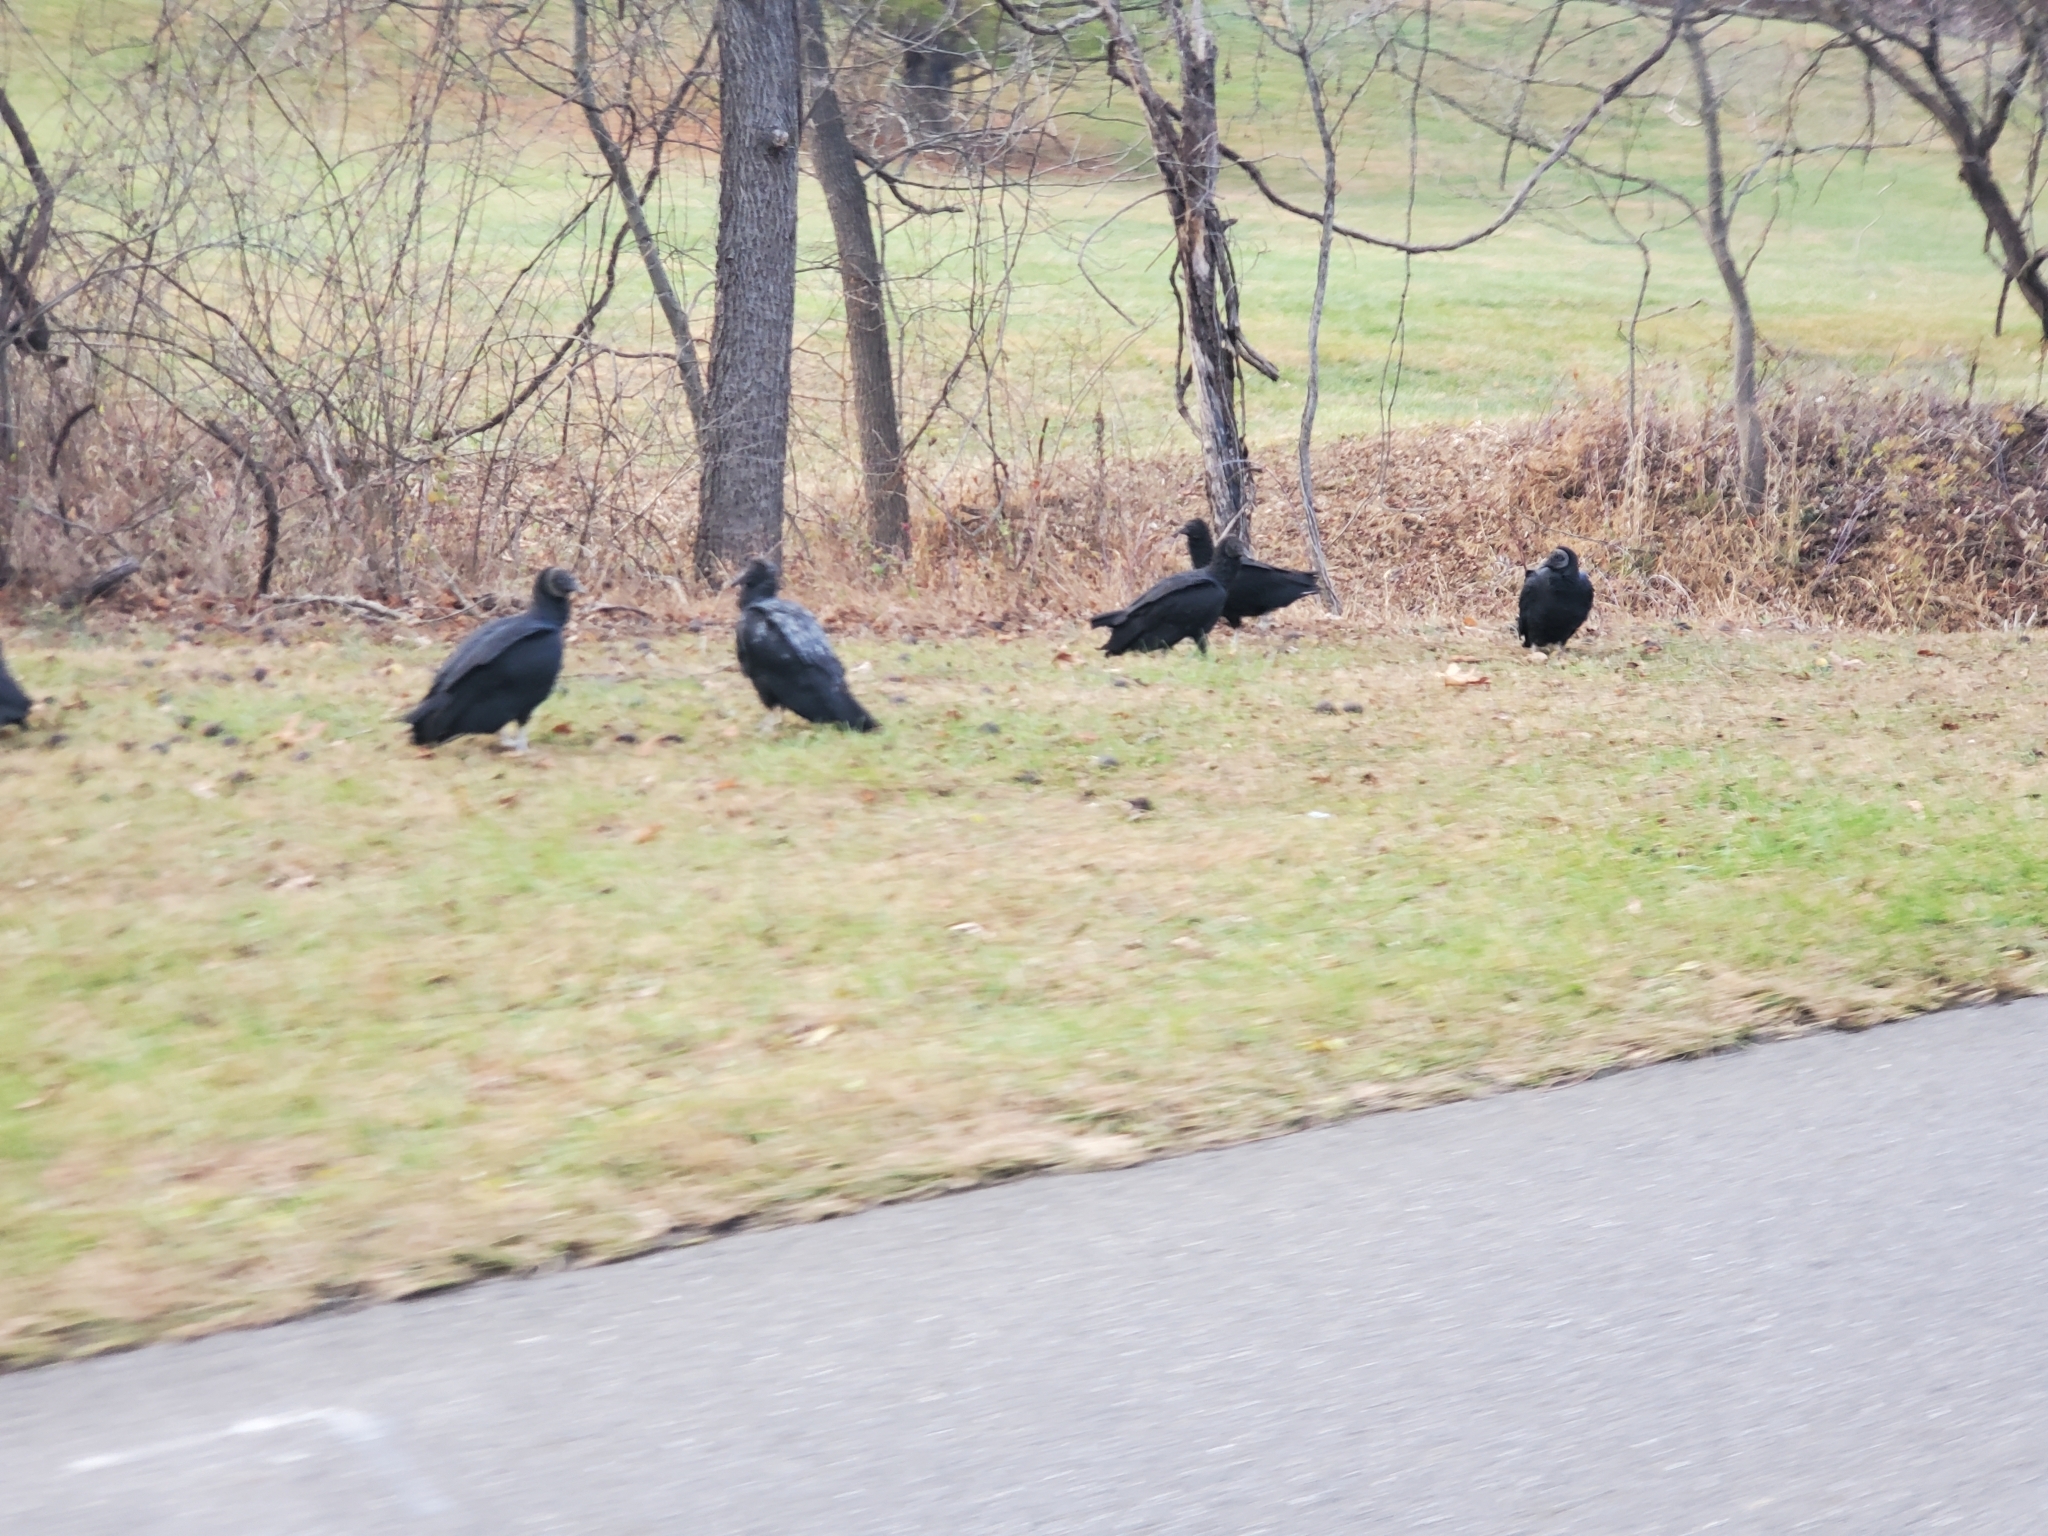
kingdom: Animalia
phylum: Chordata
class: Aves
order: Accipitriformes
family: Cathartidae
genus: Coragyps
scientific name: Coragyps atratus
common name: Black vulture
